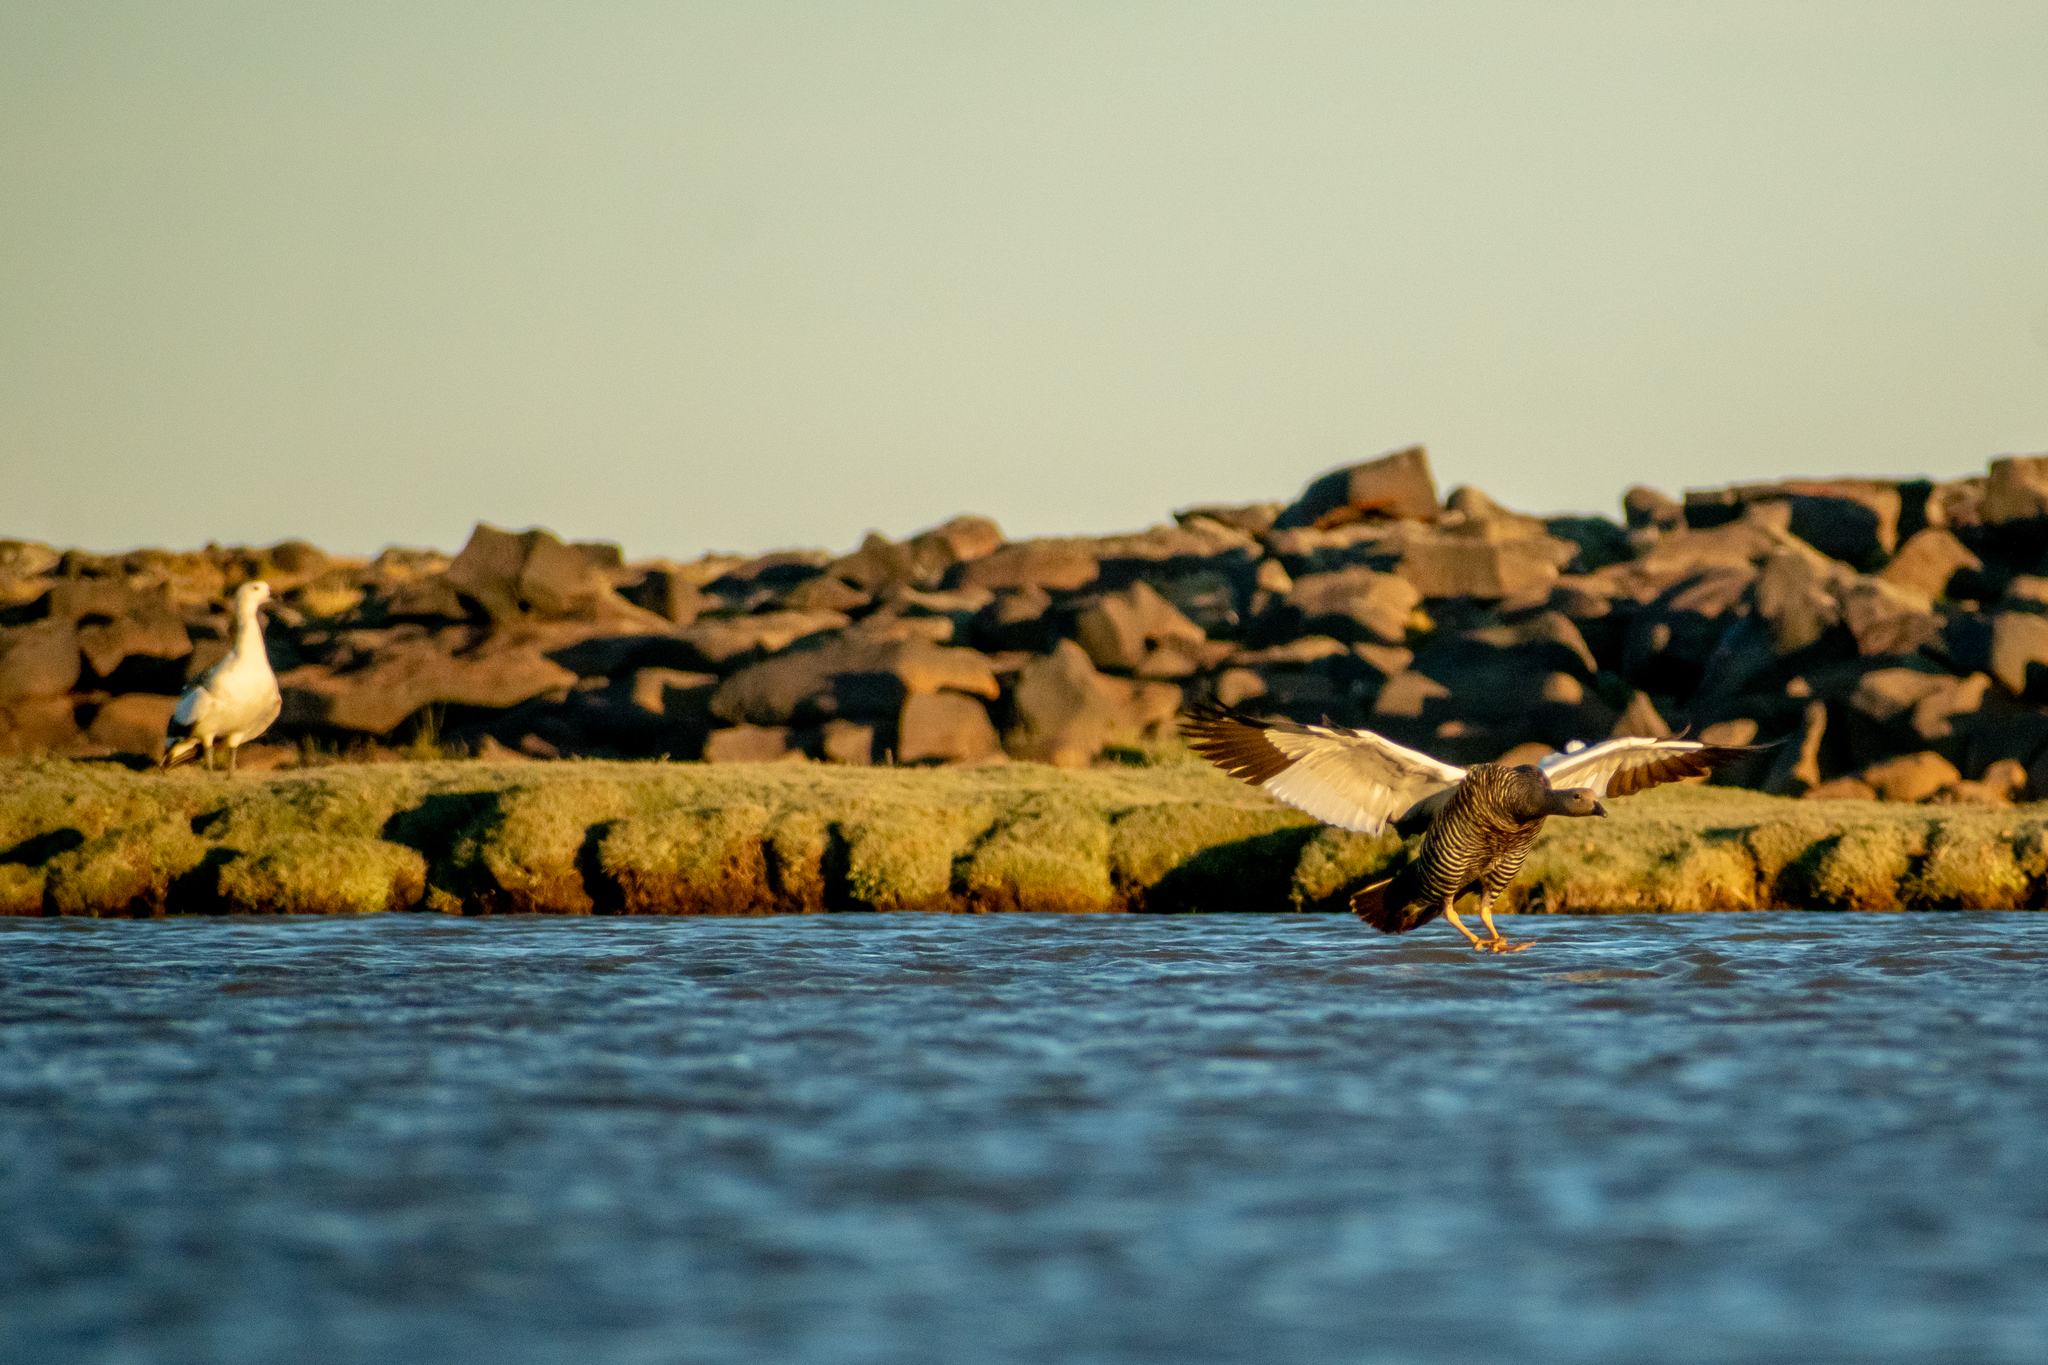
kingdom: Animalia
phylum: Chordata
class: Aves
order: Anseriformes
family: Anatidae
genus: Chloephaga
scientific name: Chloephaga picta
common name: Upland goose
